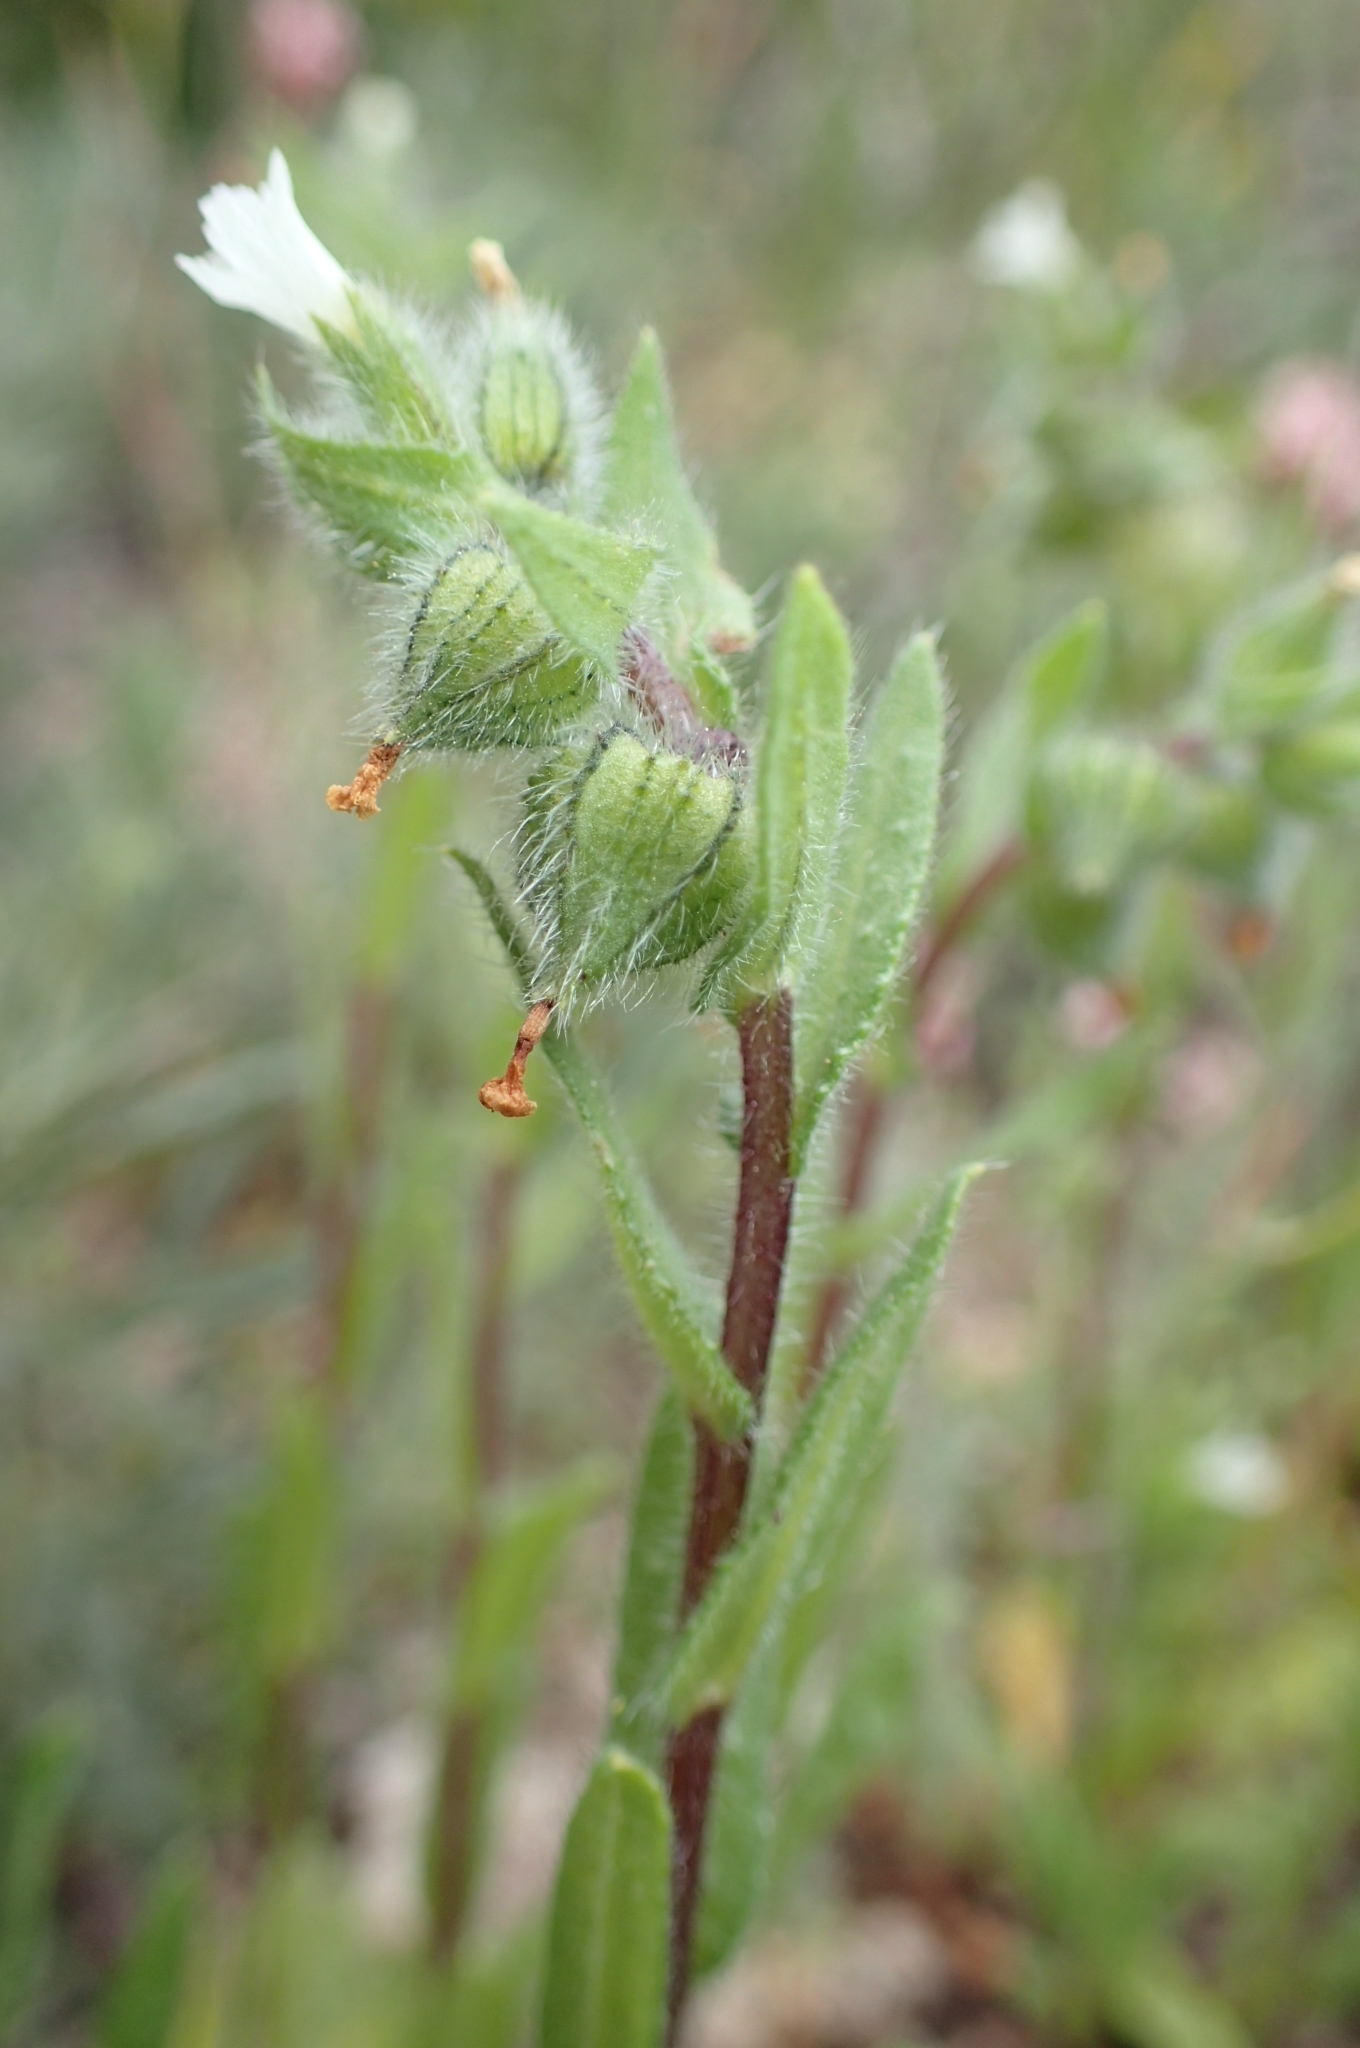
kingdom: Plantae
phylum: Tracheophyta
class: Magnoliopsida
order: Boraginales
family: Boraginaceae
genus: Nonea
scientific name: Nonea echioides
